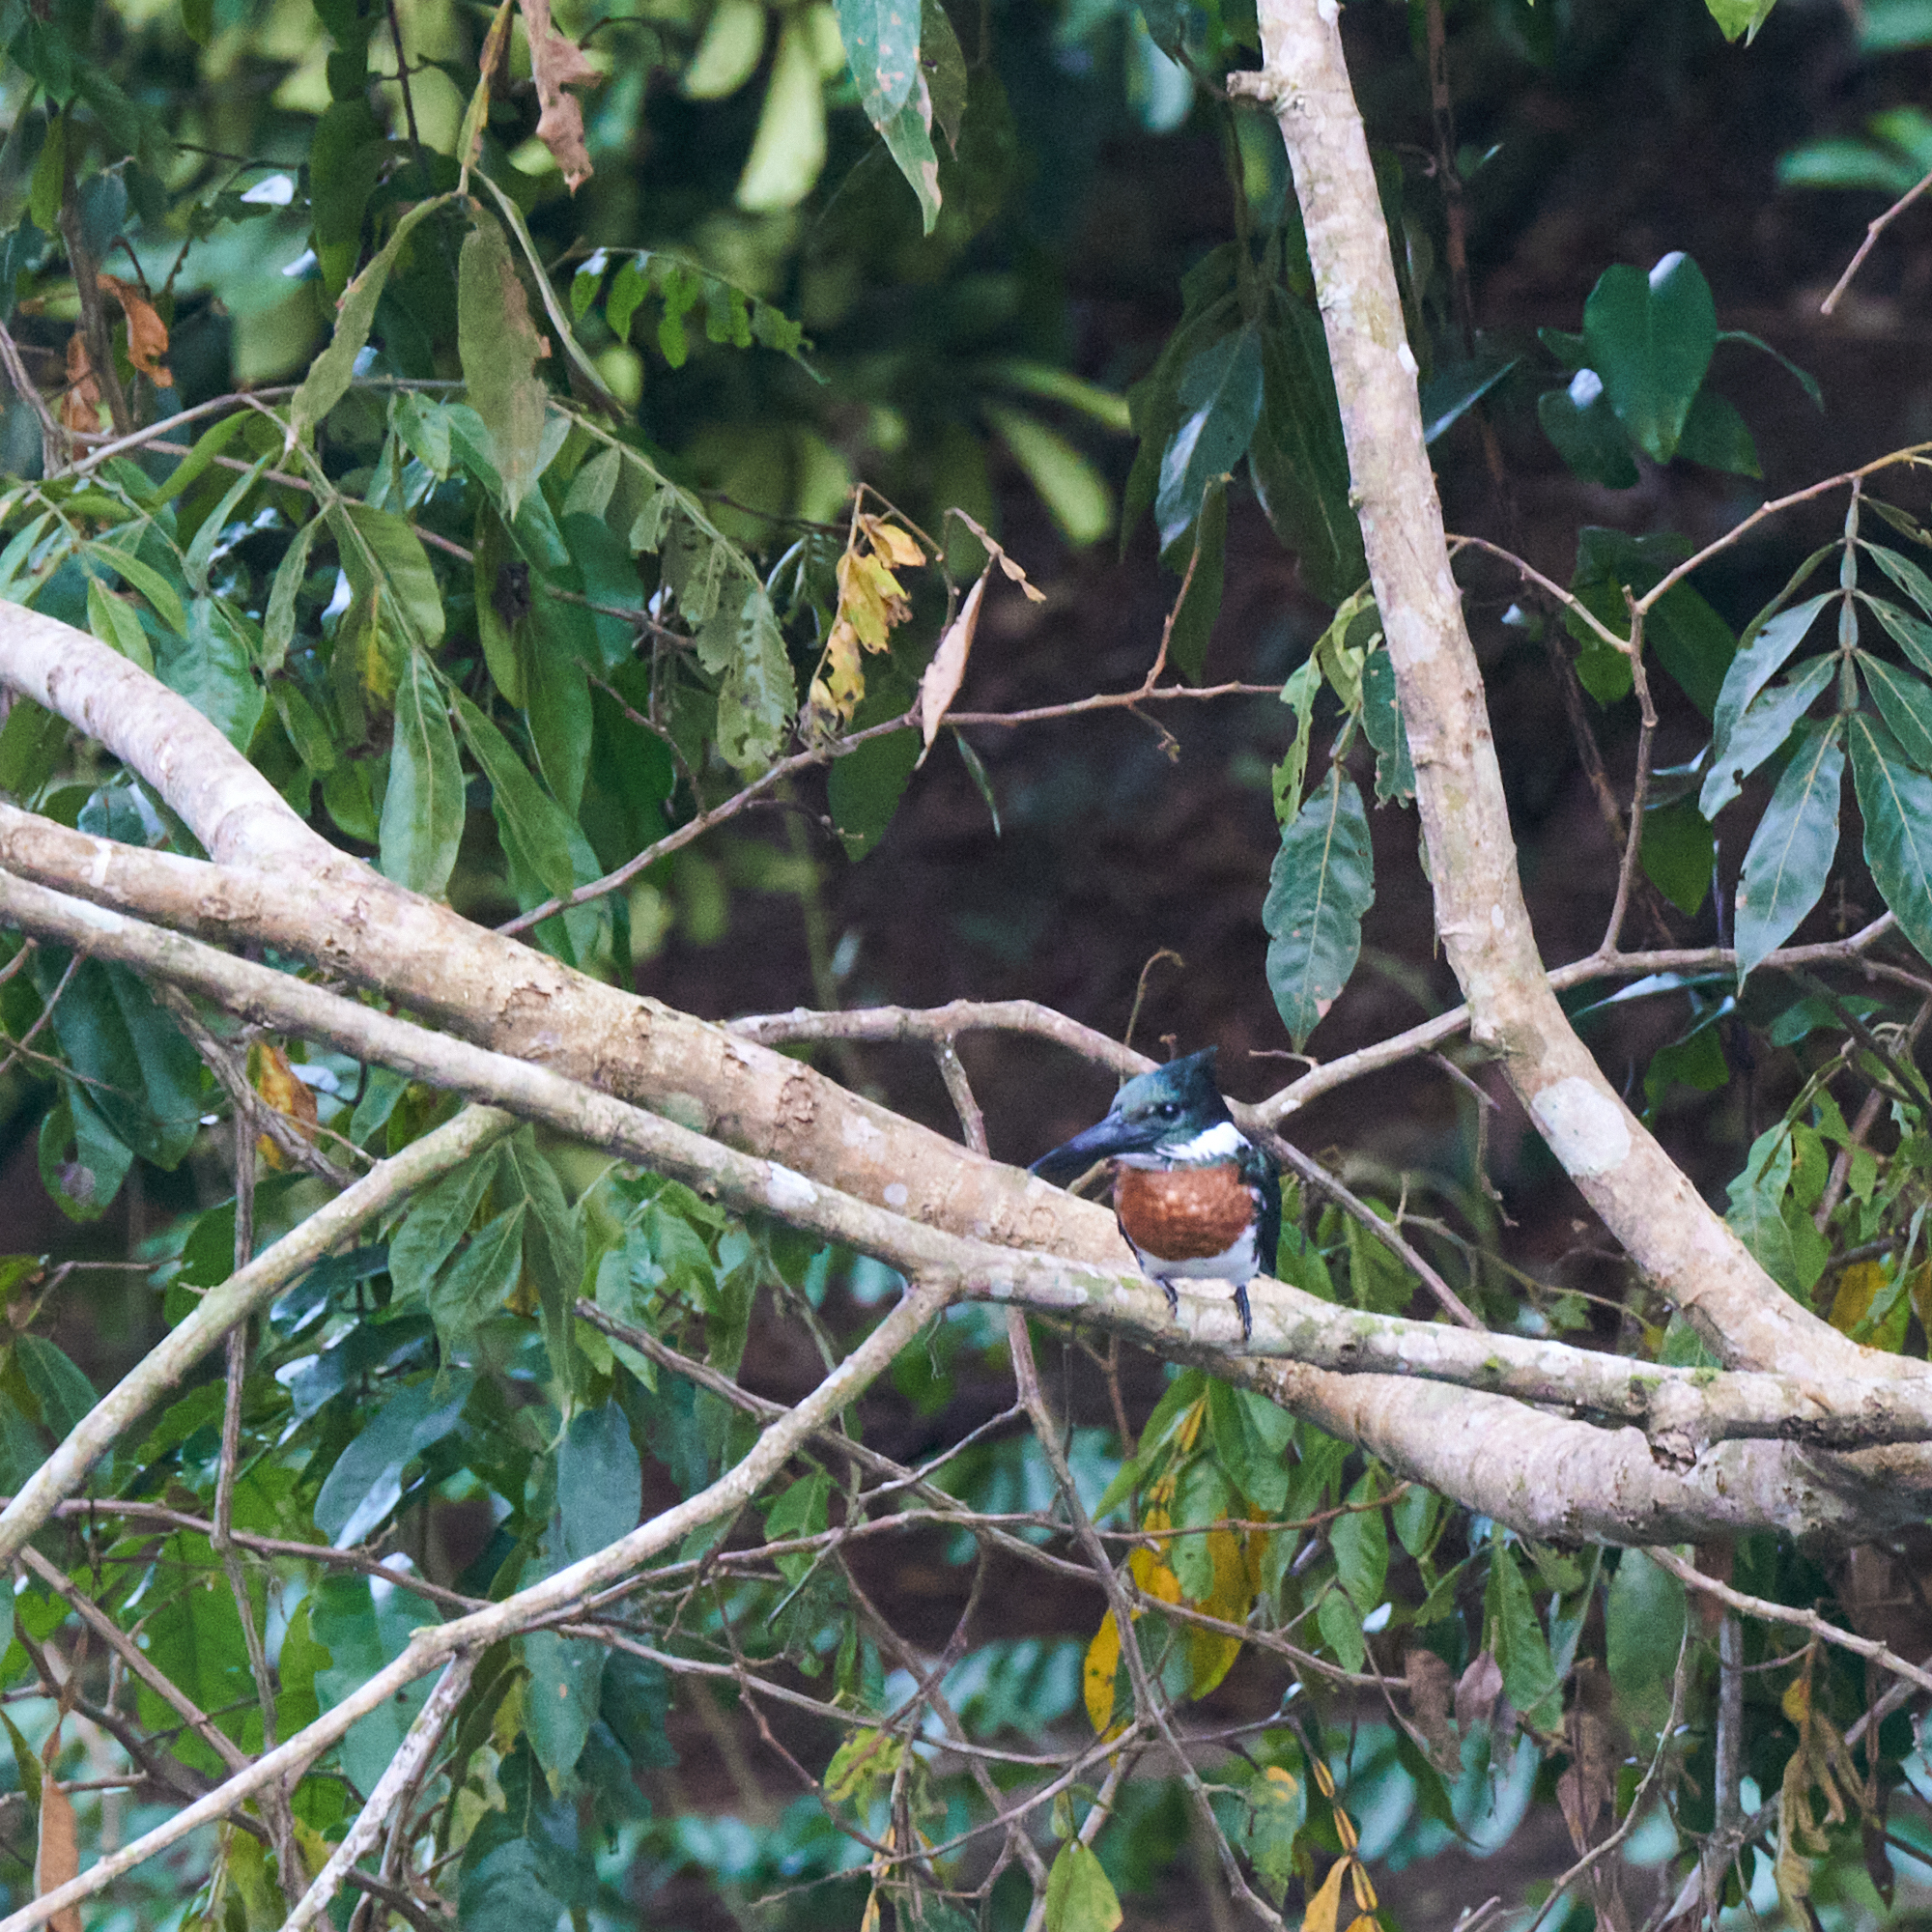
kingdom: Animalia
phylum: Chordata
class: Aves
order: Coraciiformes
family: Alcedinidae
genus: Chloroceryle
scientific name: Chloroceryle amazona
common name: Amazon kingfisher
